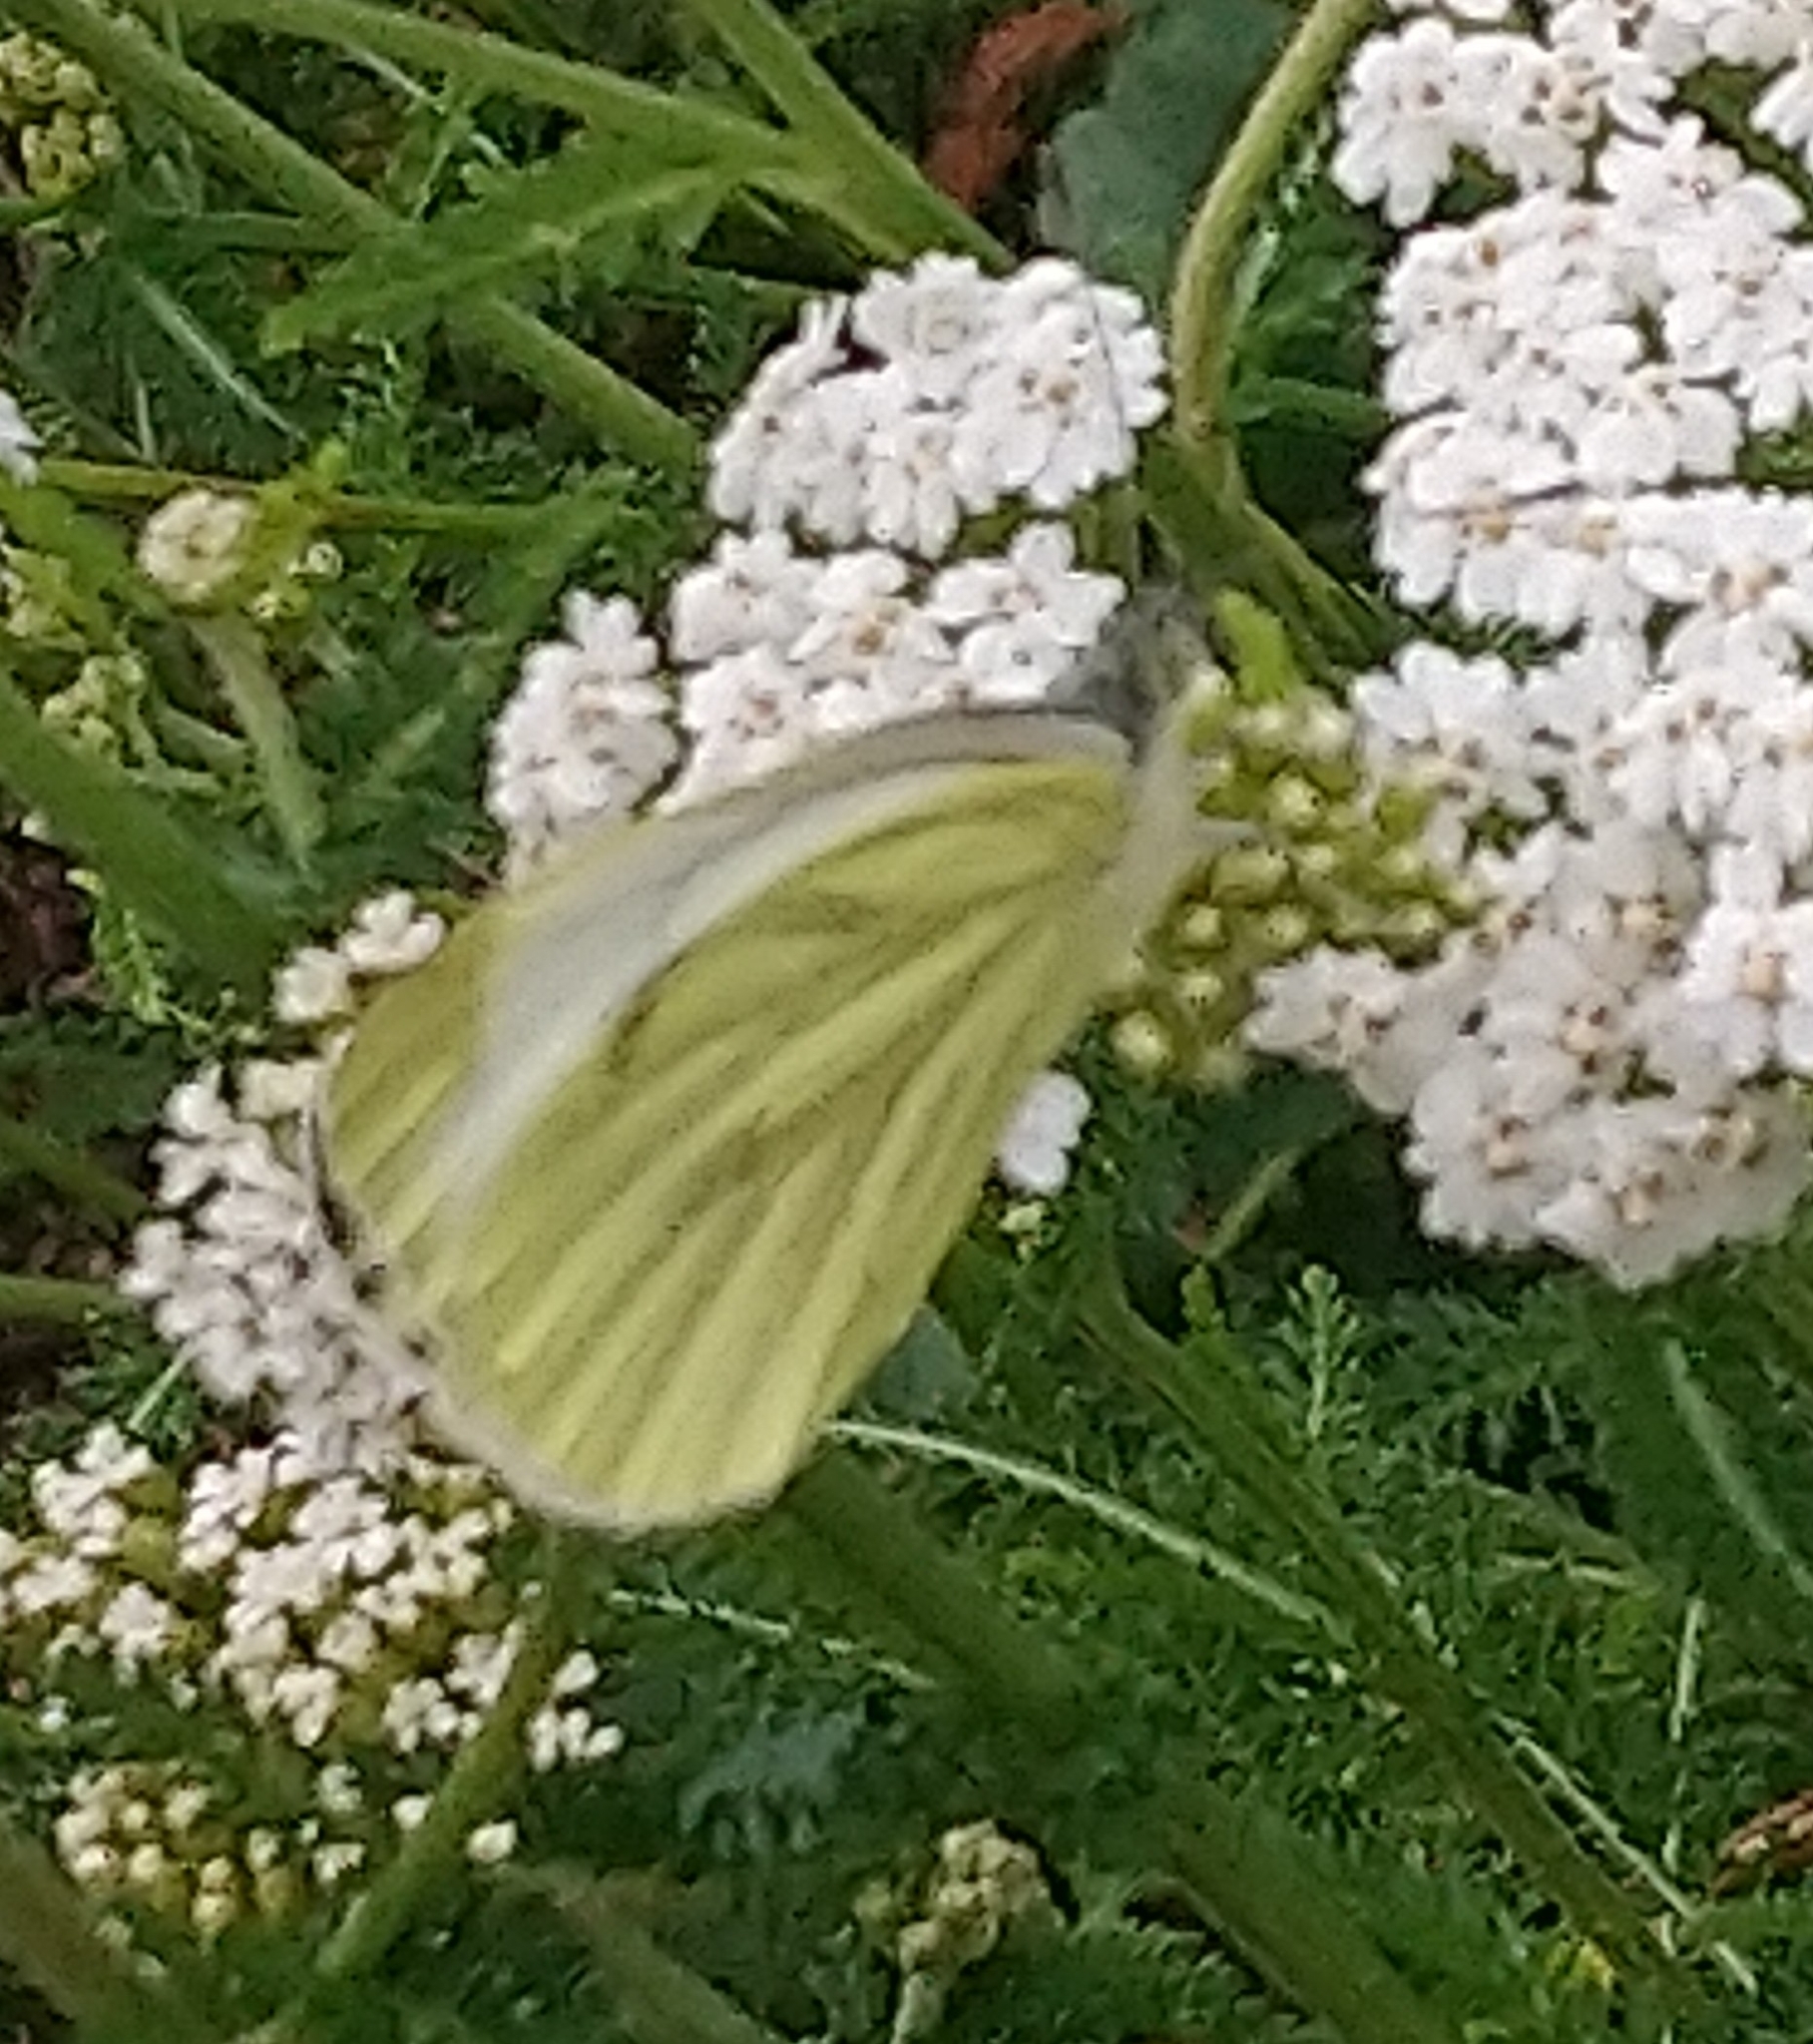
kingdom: Animalia
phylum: Arthropoda
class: Insecta
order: Lepidoptera
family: Pieridae
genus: Pieris
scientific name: Pieris napi
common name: Green-veined white
